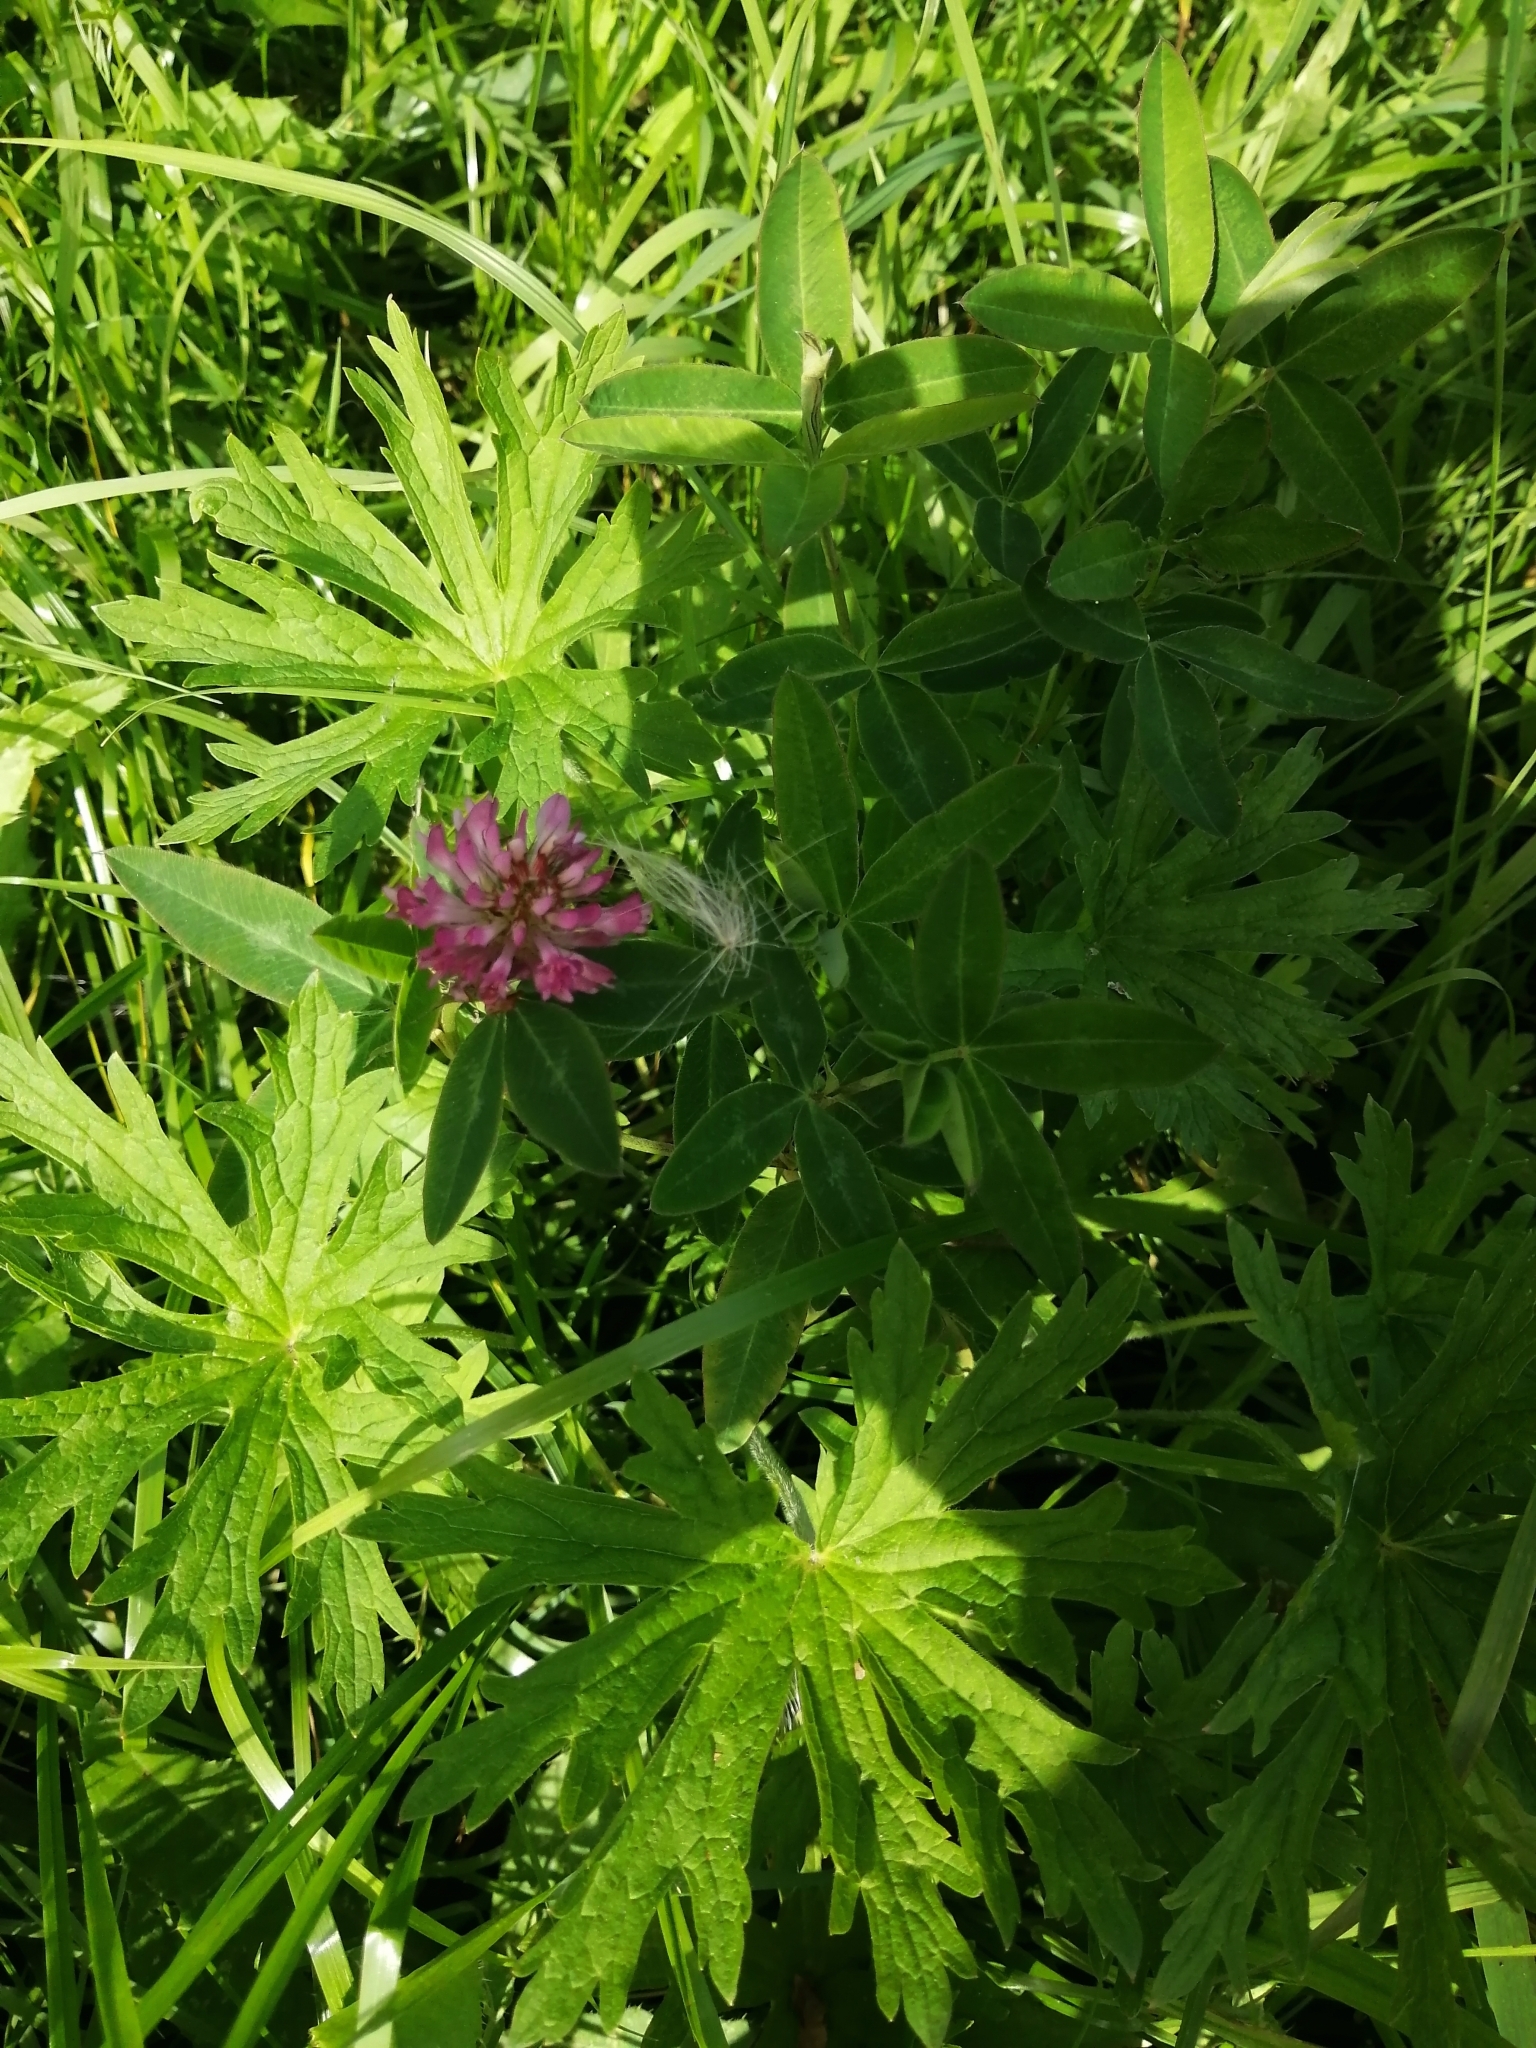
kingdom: Plantae
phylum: Tracheophyta
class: Magnoliopsida
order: Fabales
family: Fabaceae
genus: Trifolium
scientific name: Trifolium medium
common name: Zigzag clover
